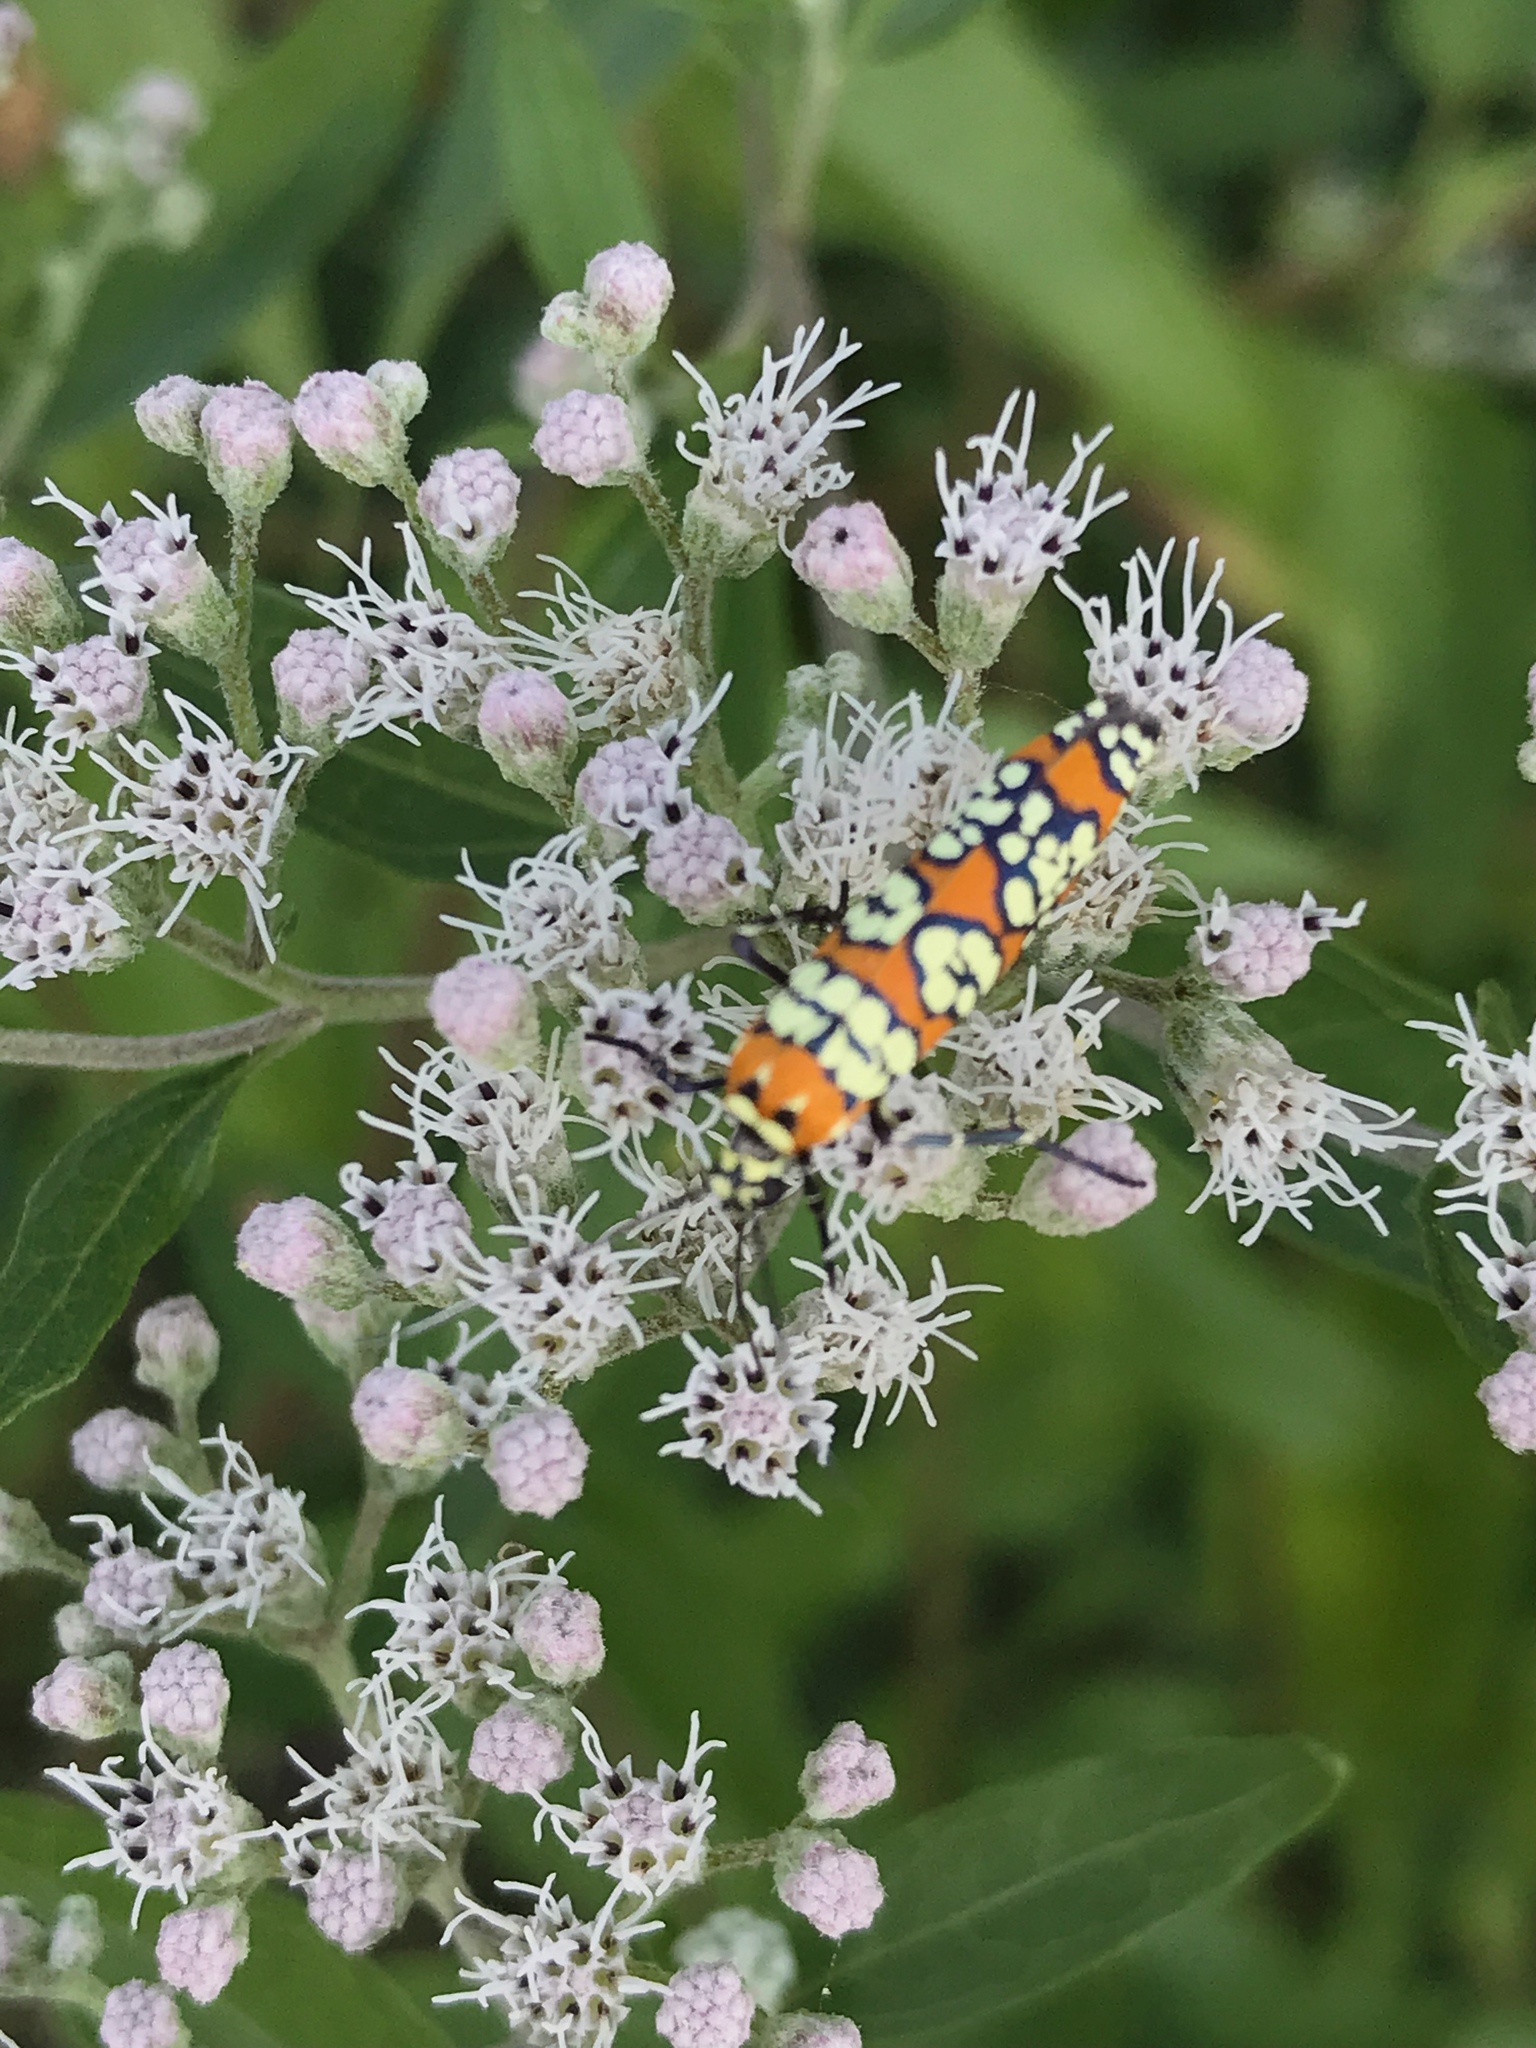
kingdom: Animalia
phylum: Arthropoda
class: Insecta
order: Lepidoptera
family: Attevidae
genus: Atteva
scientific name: Atteva punctella
